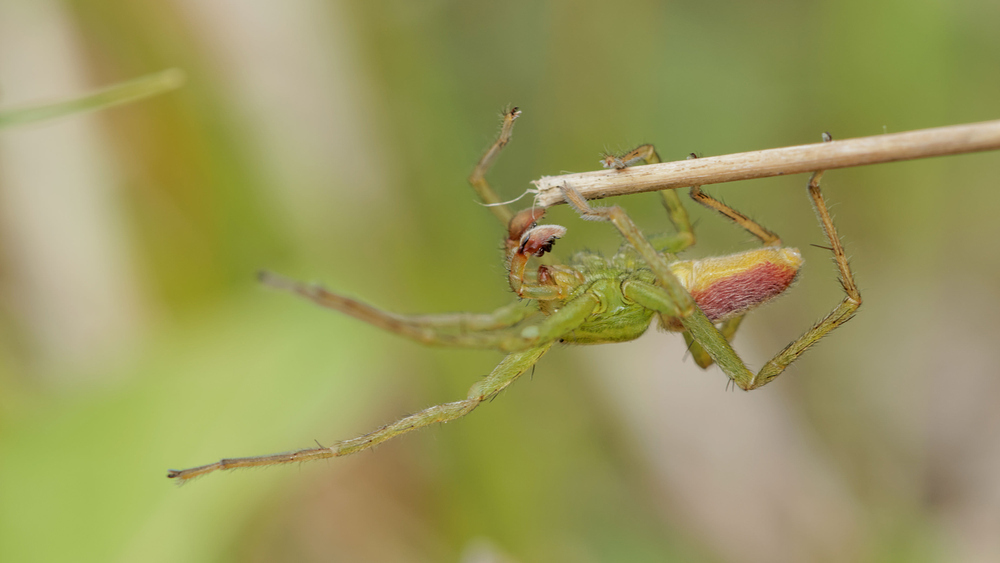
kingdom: Animalia
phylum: Arthropoda
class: Arachnida
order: Araneae
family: Sparassidae
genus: Micrommata
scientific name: Micrommata virescens
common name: Green spider
